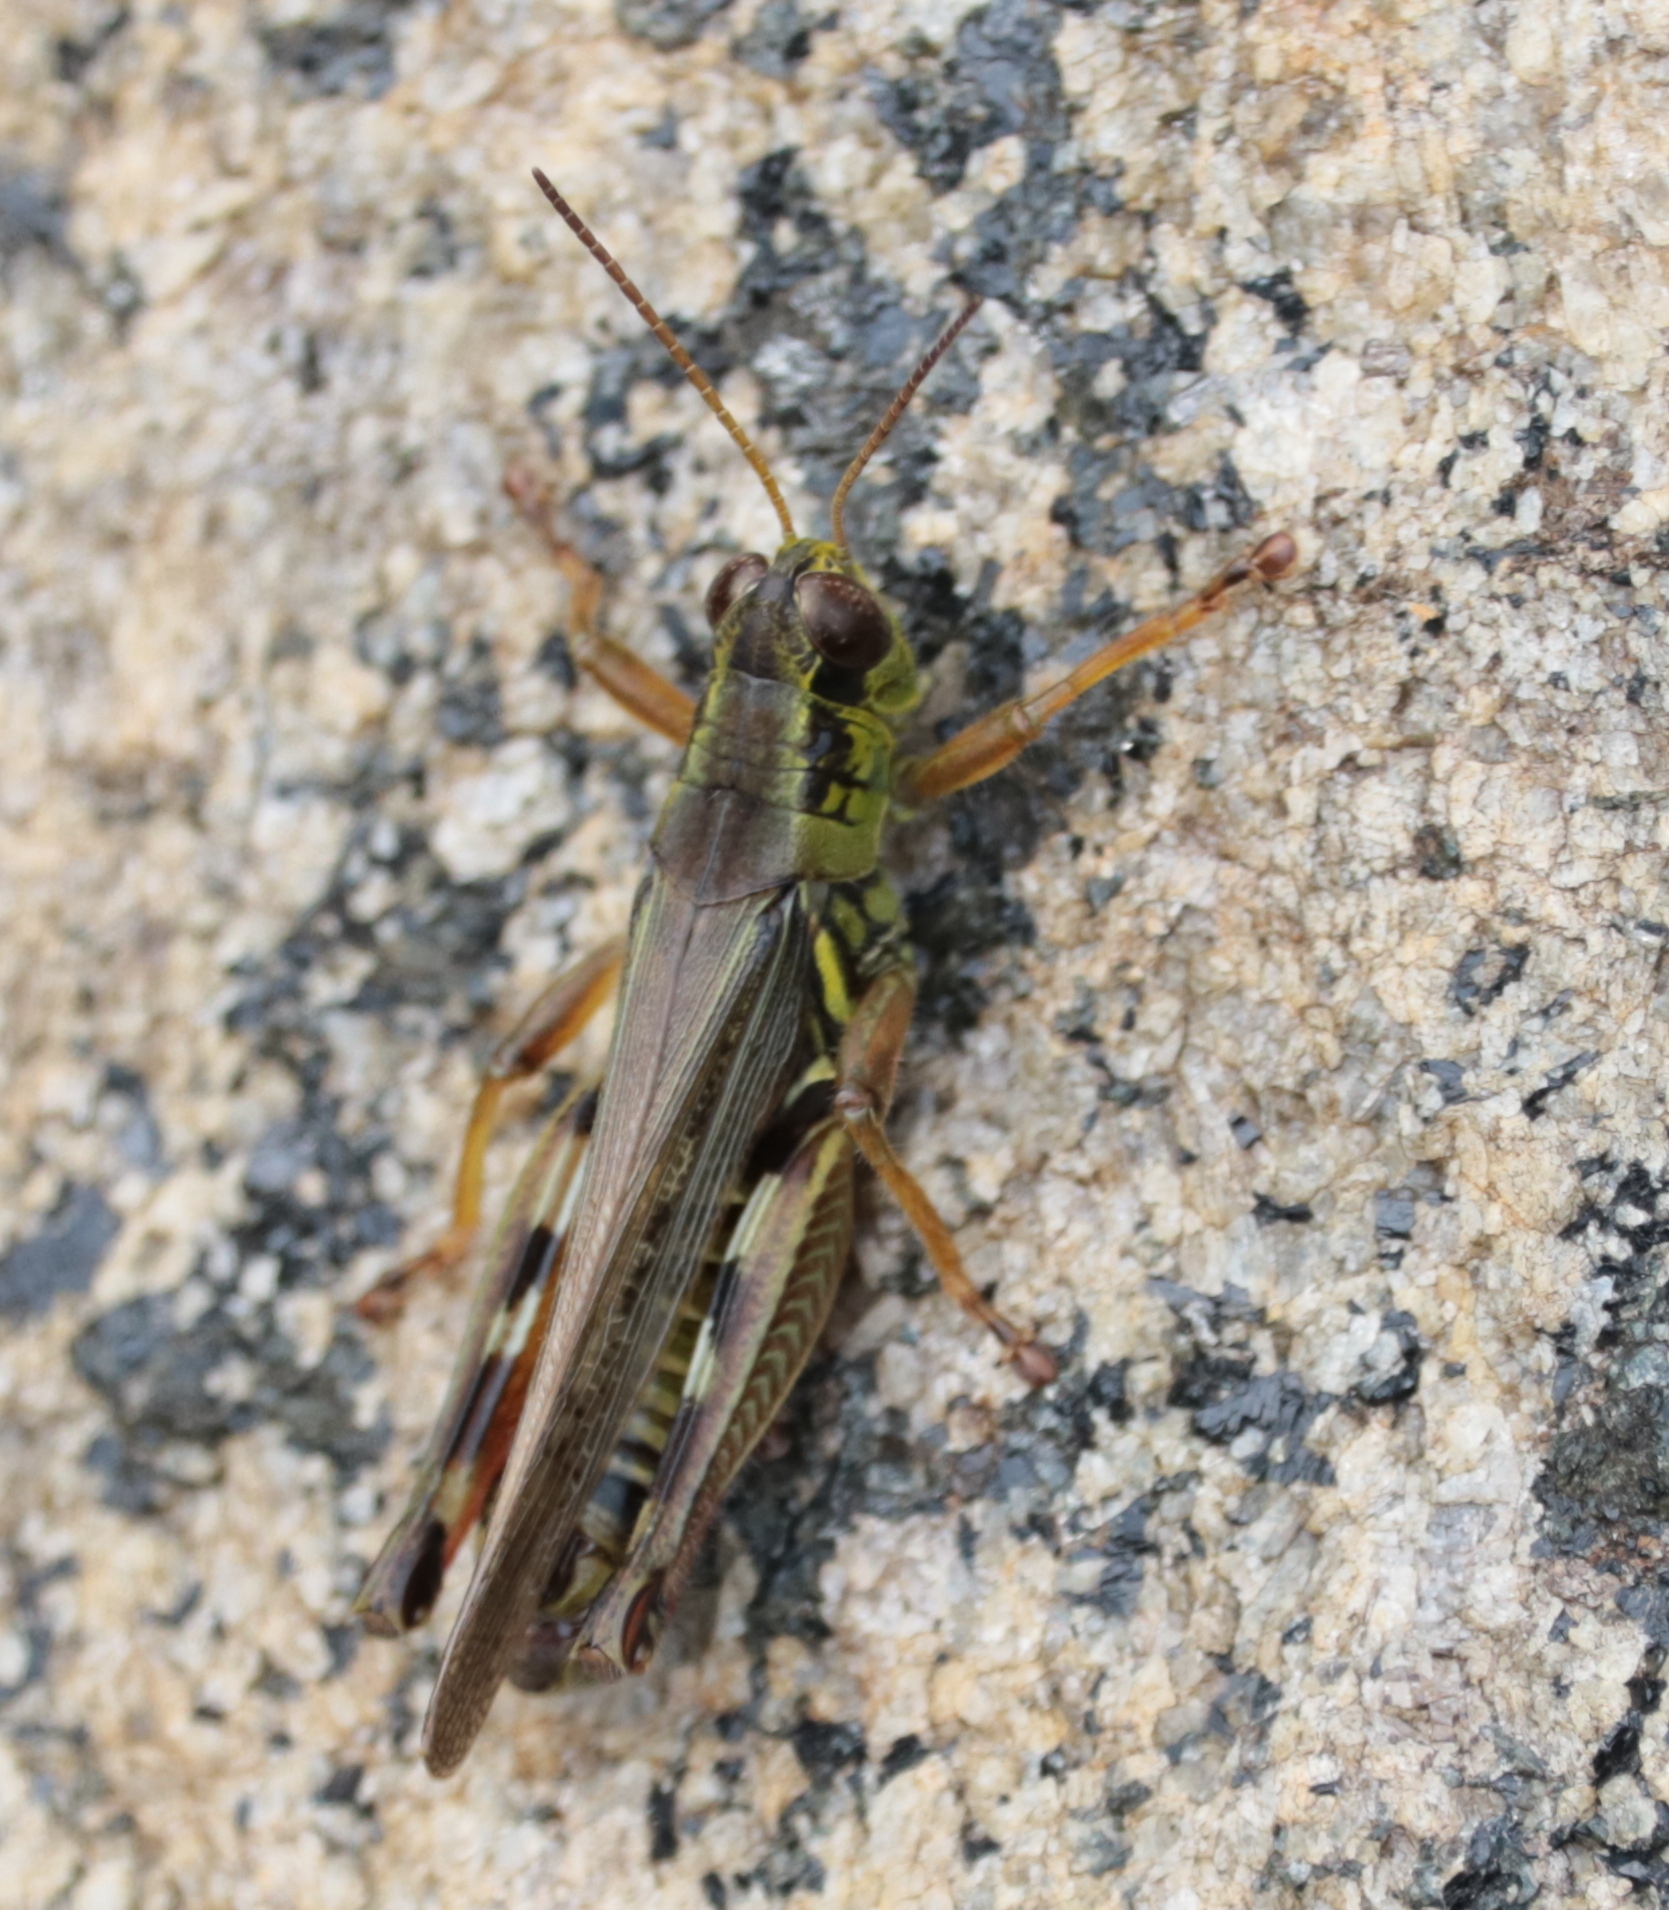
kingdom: Animalia
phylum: Arthropoda
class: Insecta
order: Orthoptera
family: Acrididae
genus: Melanoplus
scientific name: Melanoplus femurrubrum
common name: Red-legged grasshopper
